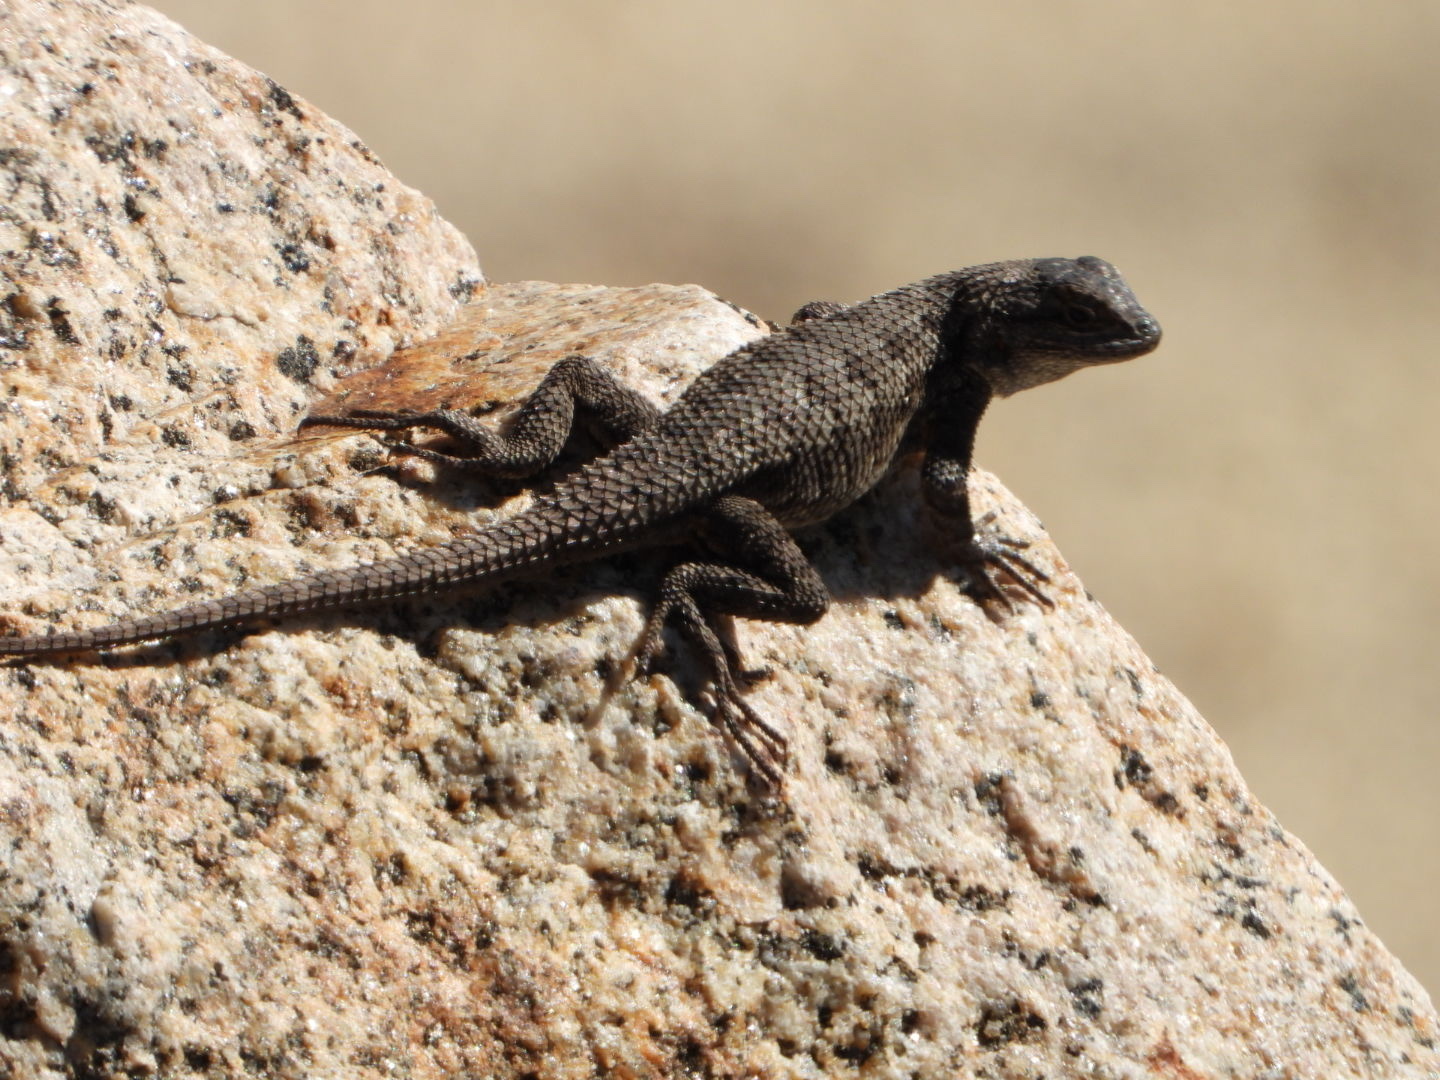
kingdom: Animalia
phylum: Chordata
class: Squamata
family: Phrynosomatidae
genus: Sceloporus
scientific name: Sceloporus occidentalis
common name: Western fence lizard
